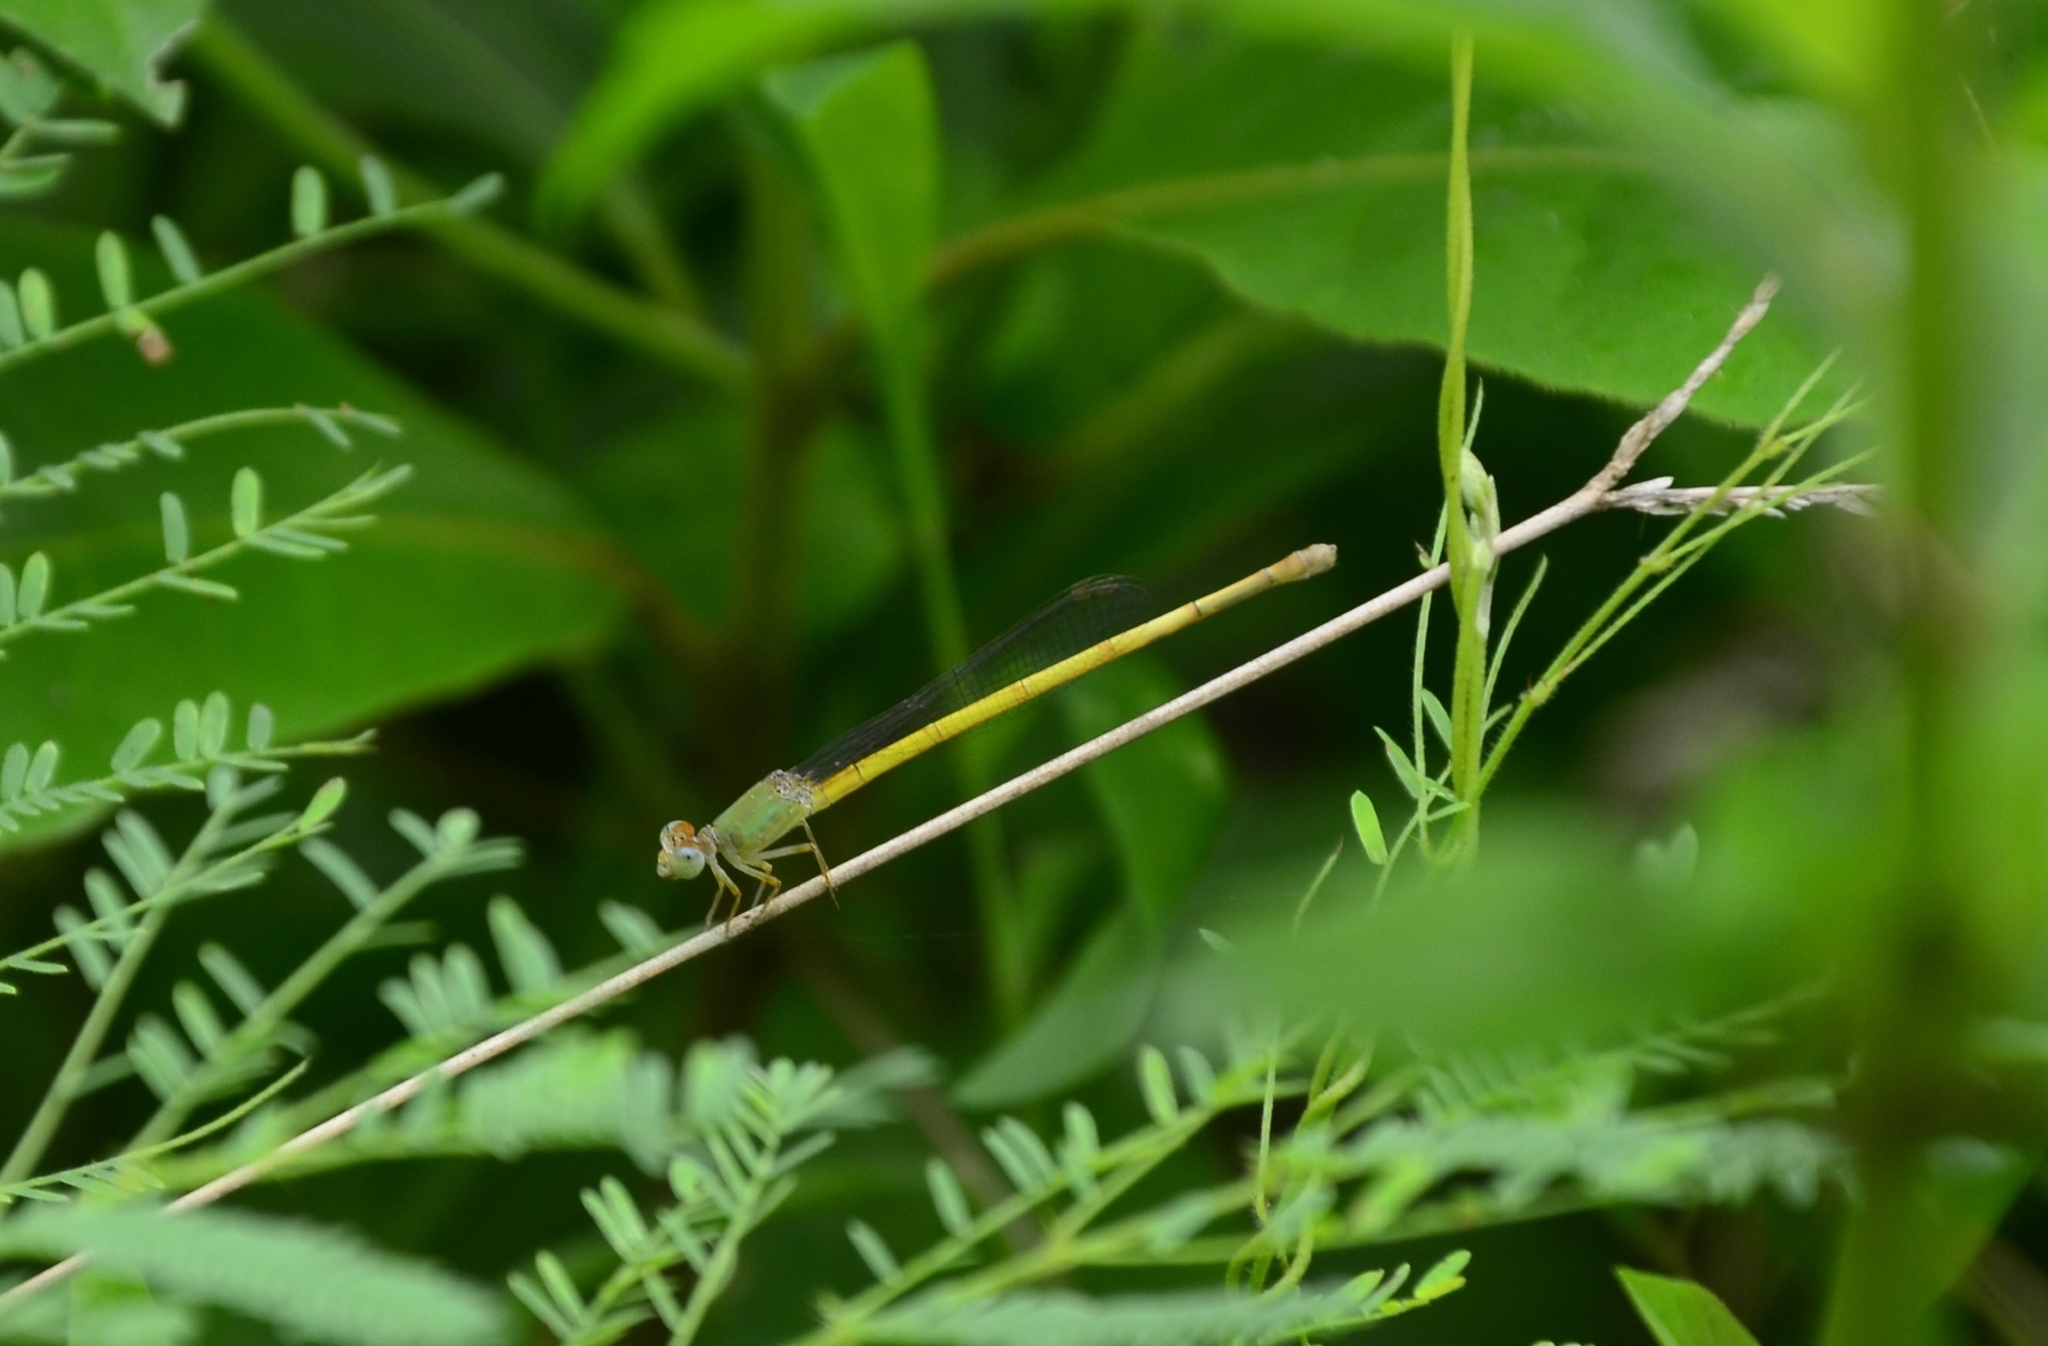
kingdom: Animalia
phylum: Arthropoda
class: Insecta
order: Odonata
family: Coenagrionidae
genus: Ceriagrion
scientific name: Ceriagrion coromandelianum
